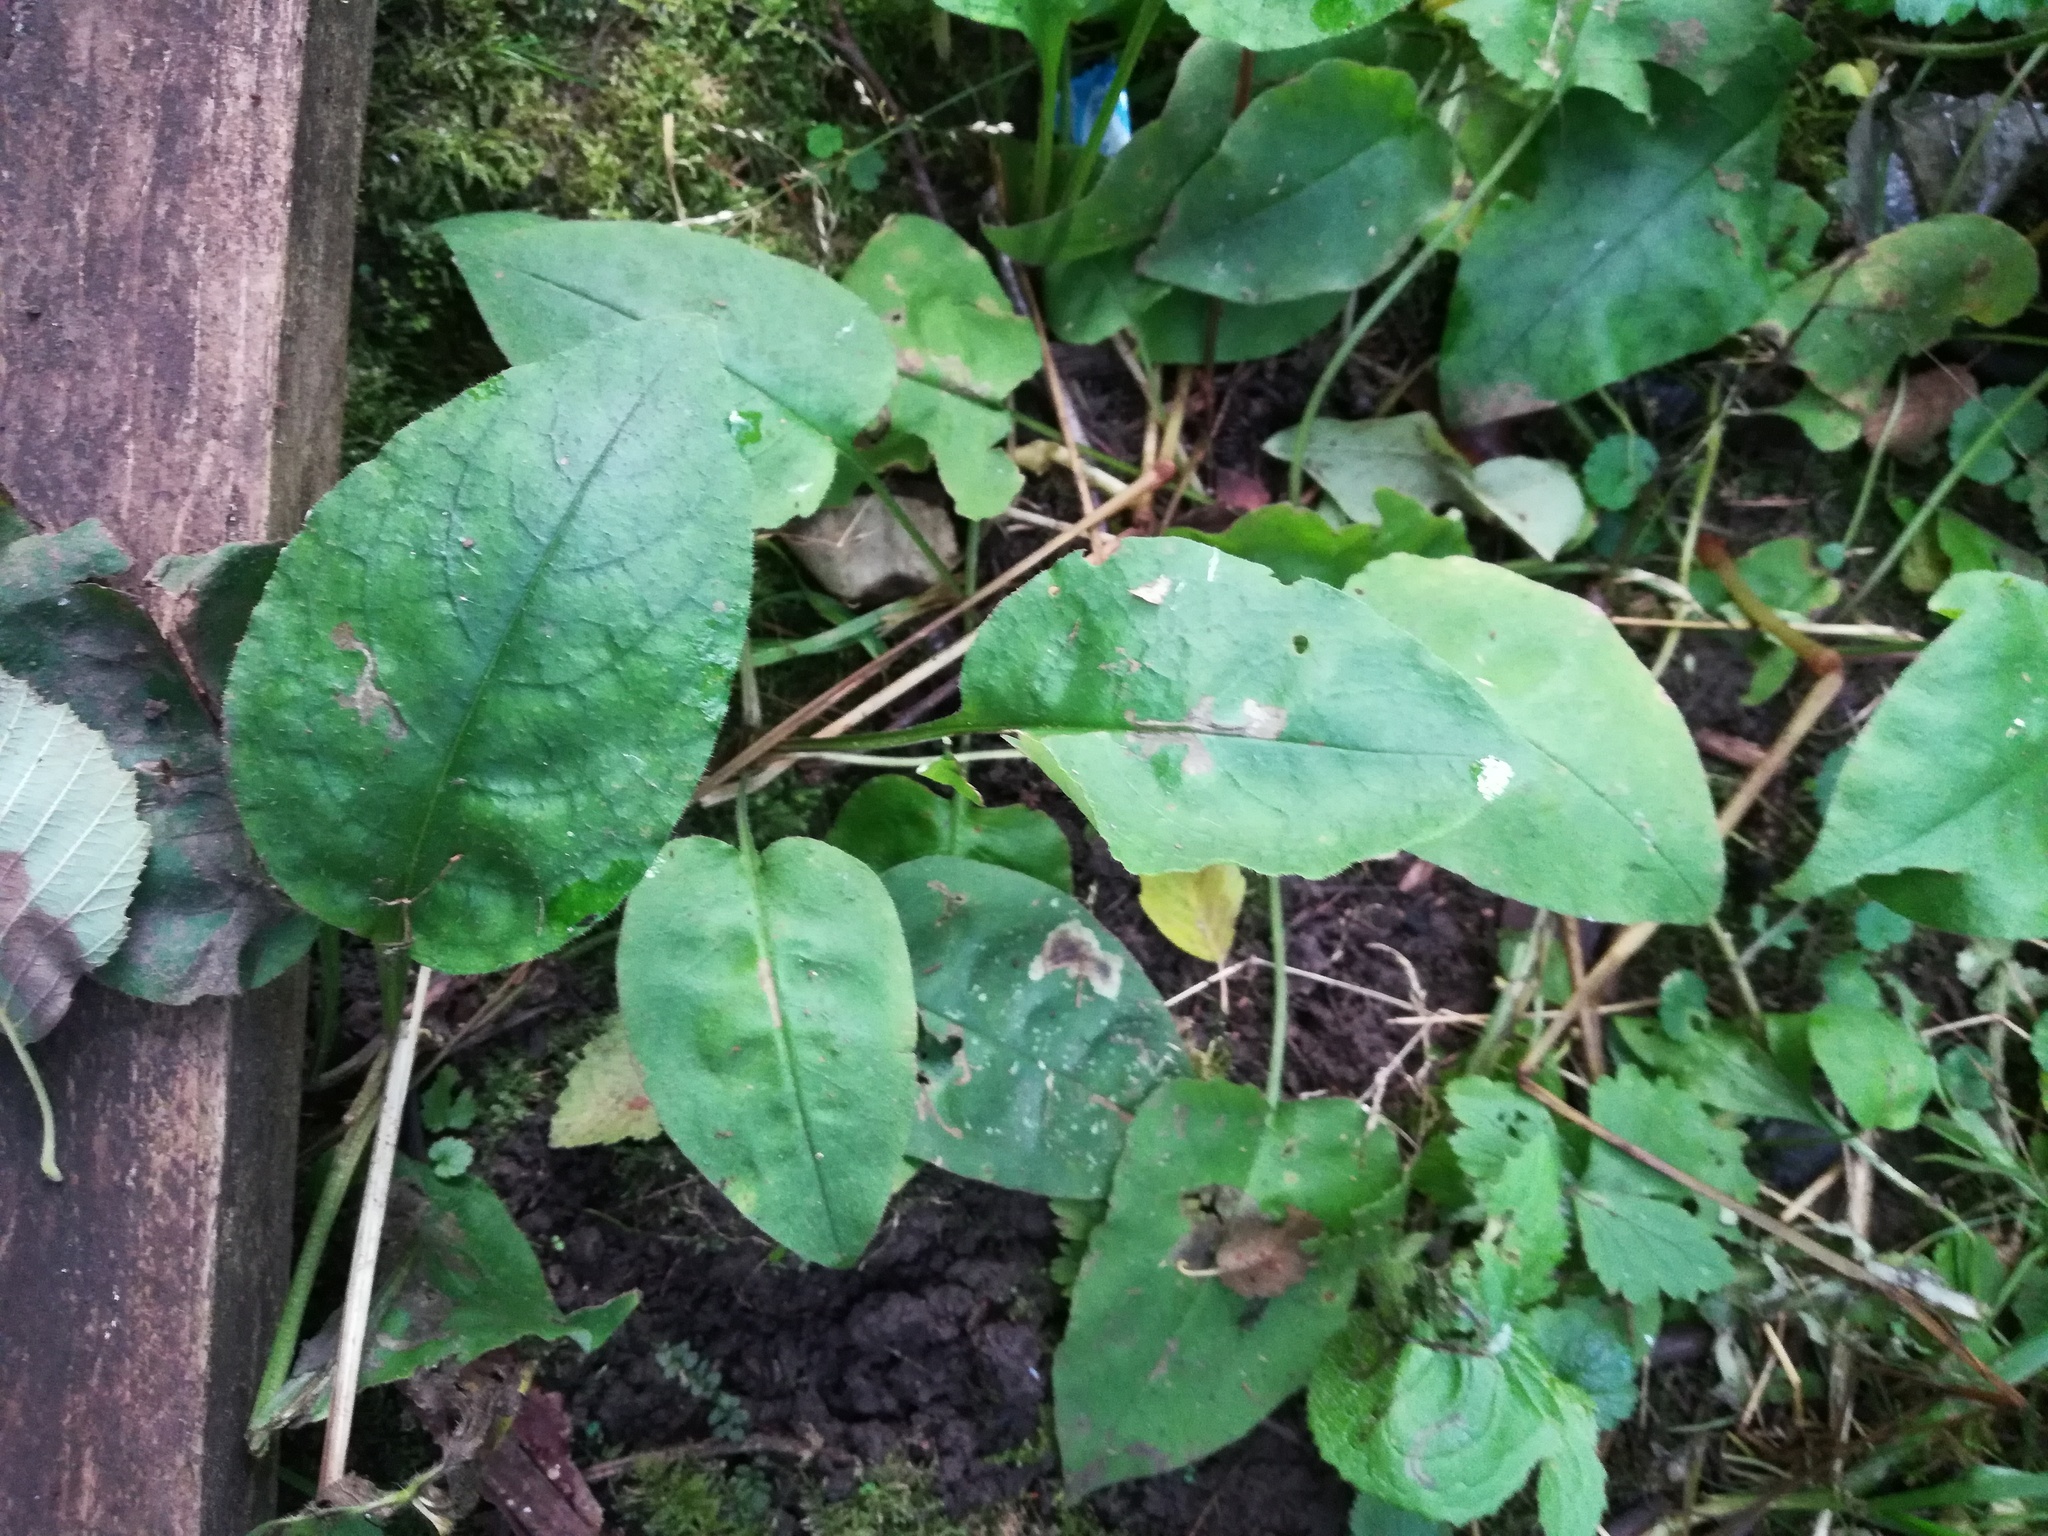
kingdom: Plantae
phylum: Tracheophyta
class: Magnoliopsida
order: Boraginales
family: Boraginaceae
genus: Pulmonaria
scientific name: Pulmonaria obscura
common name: Suffolk lungwort
